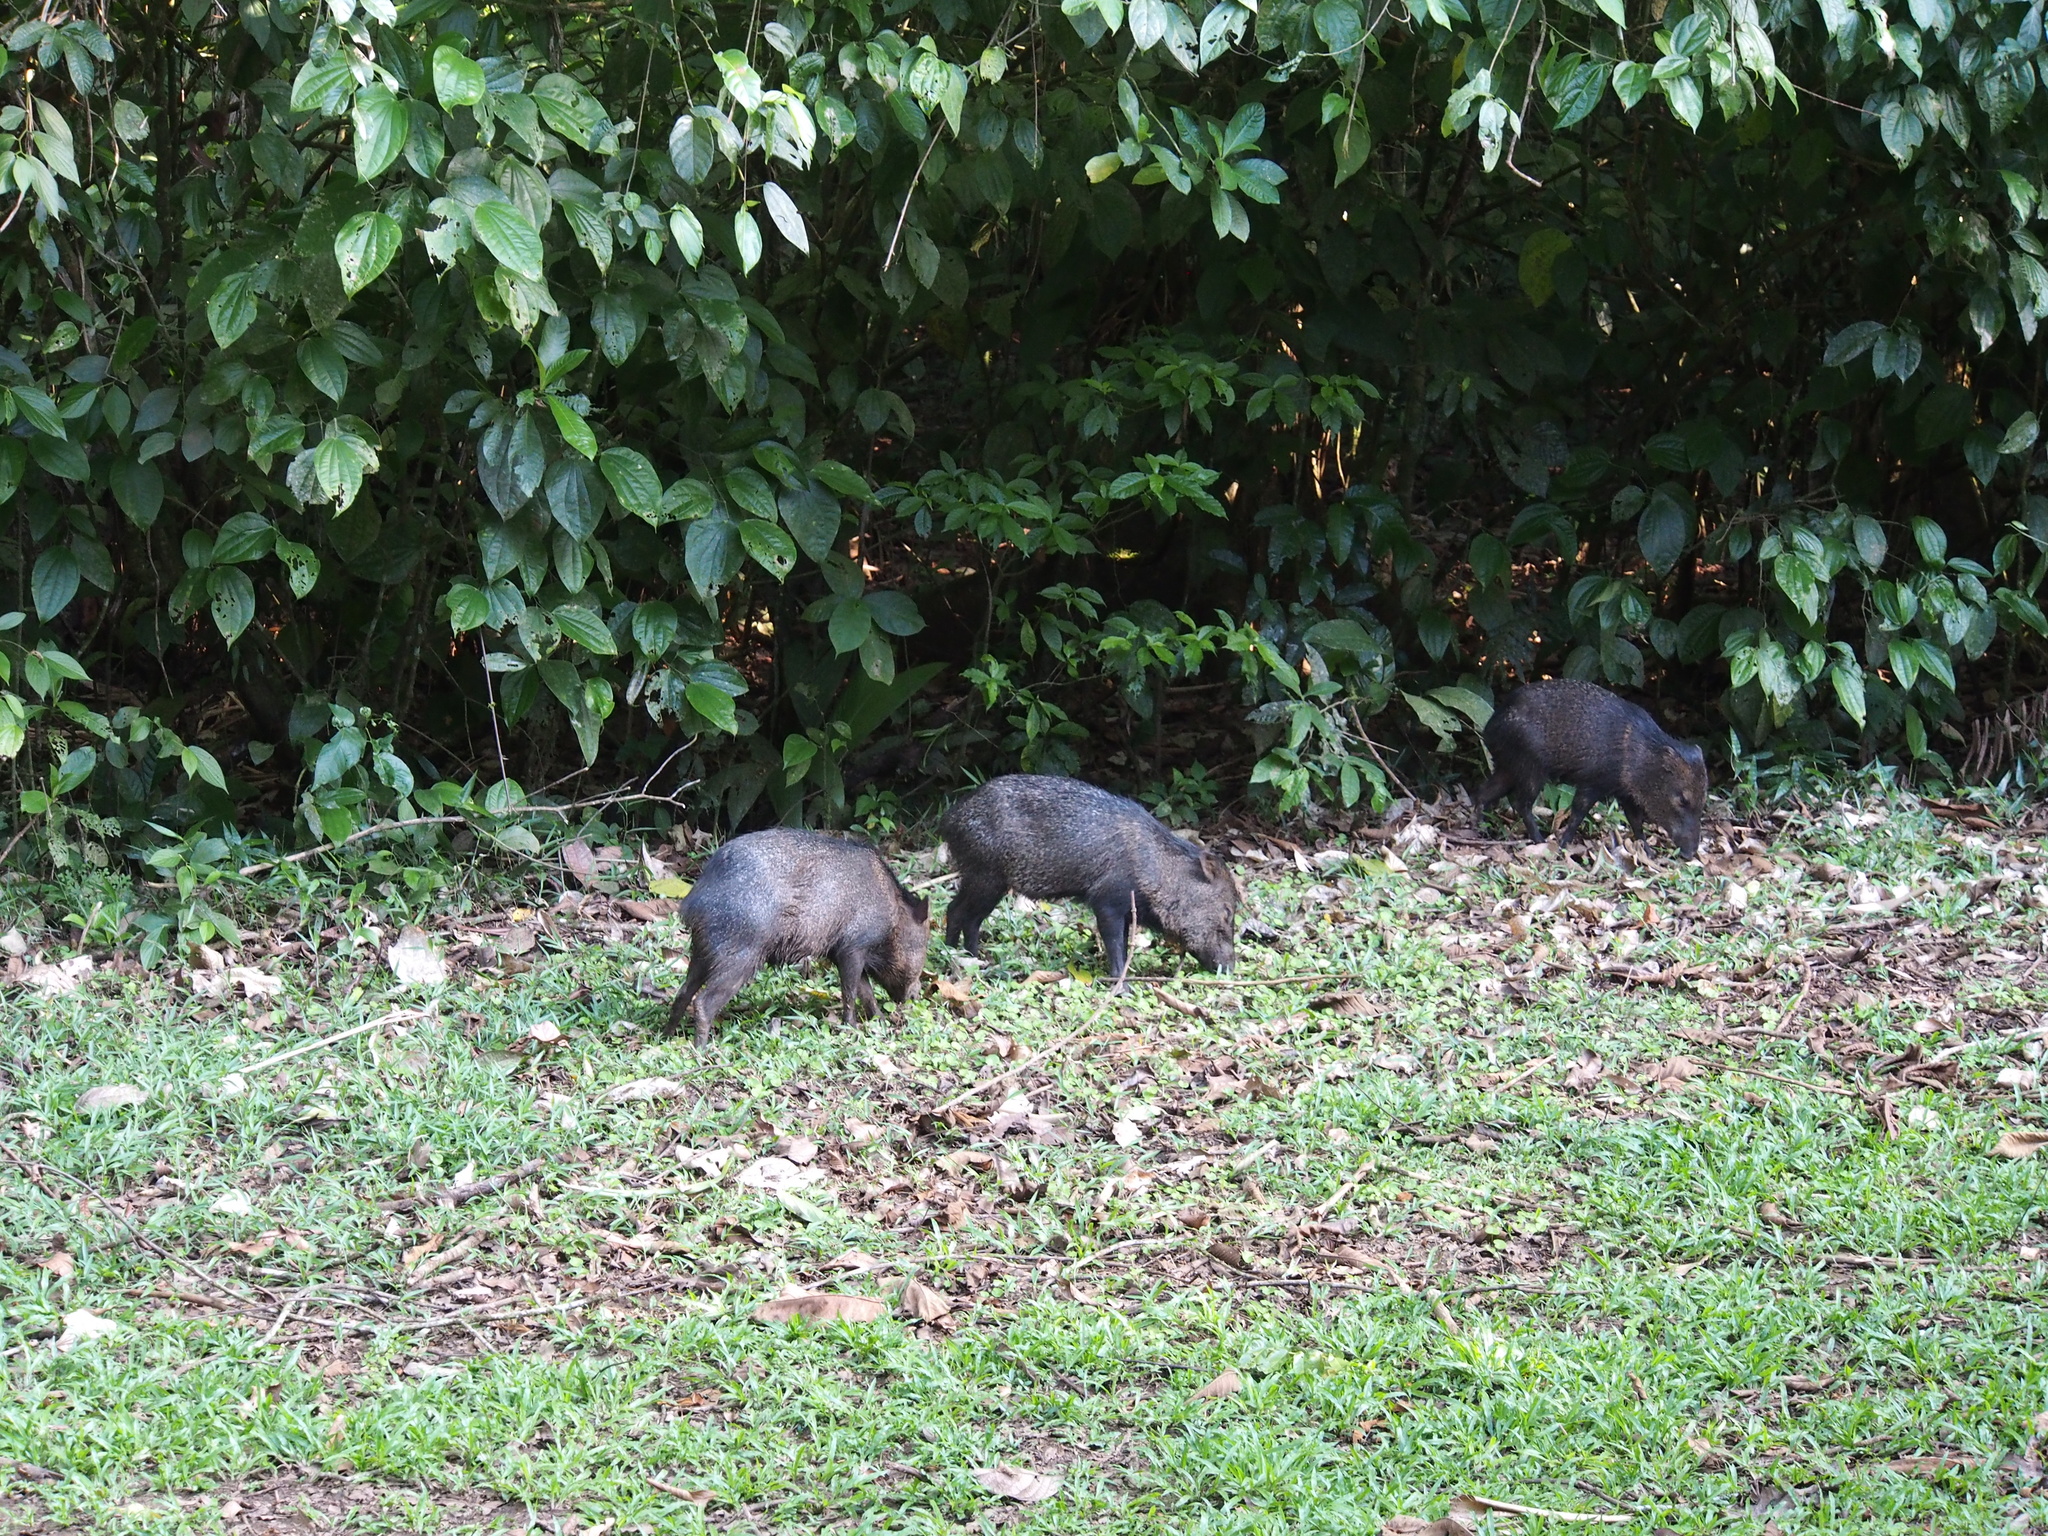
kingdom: Animalia
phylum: Chordata
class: Mammalia
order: Artiodactyla
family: Tayassuidae
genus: Pecari
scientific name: Pecari tajacu
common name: Collared peccary
